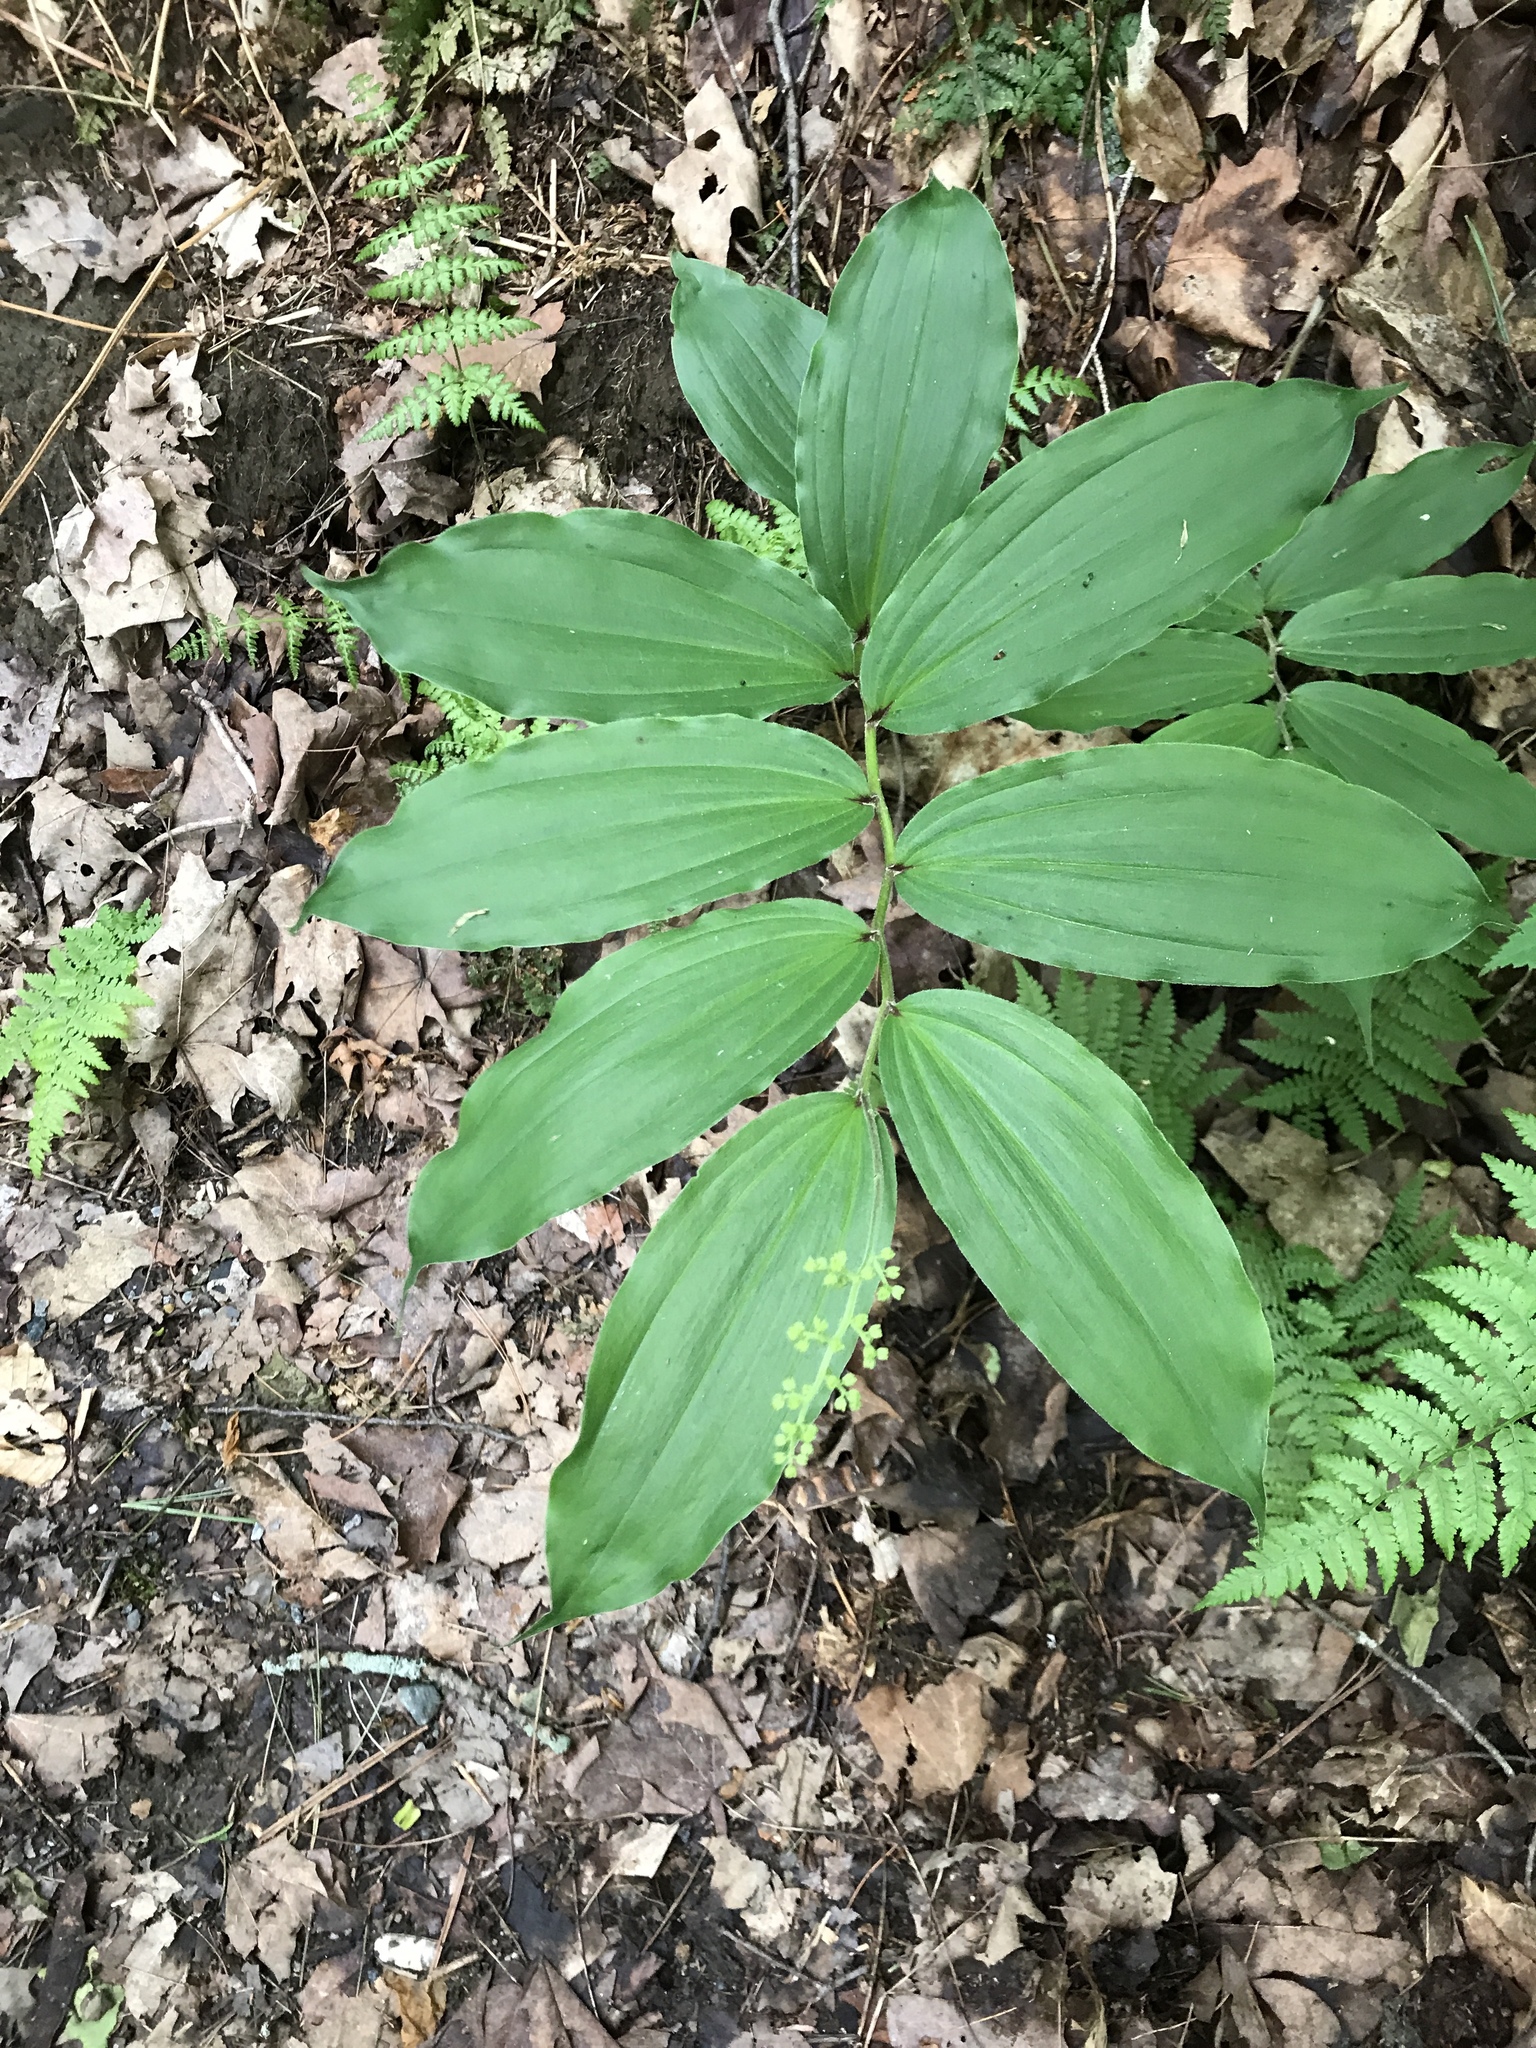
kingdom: Plantae
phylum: Tracheophyta
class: Liliopsida
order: Asparagales
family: Asparagaceae
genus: Maianthemum
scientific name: Maianthemum racemosum
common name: False spikenard
